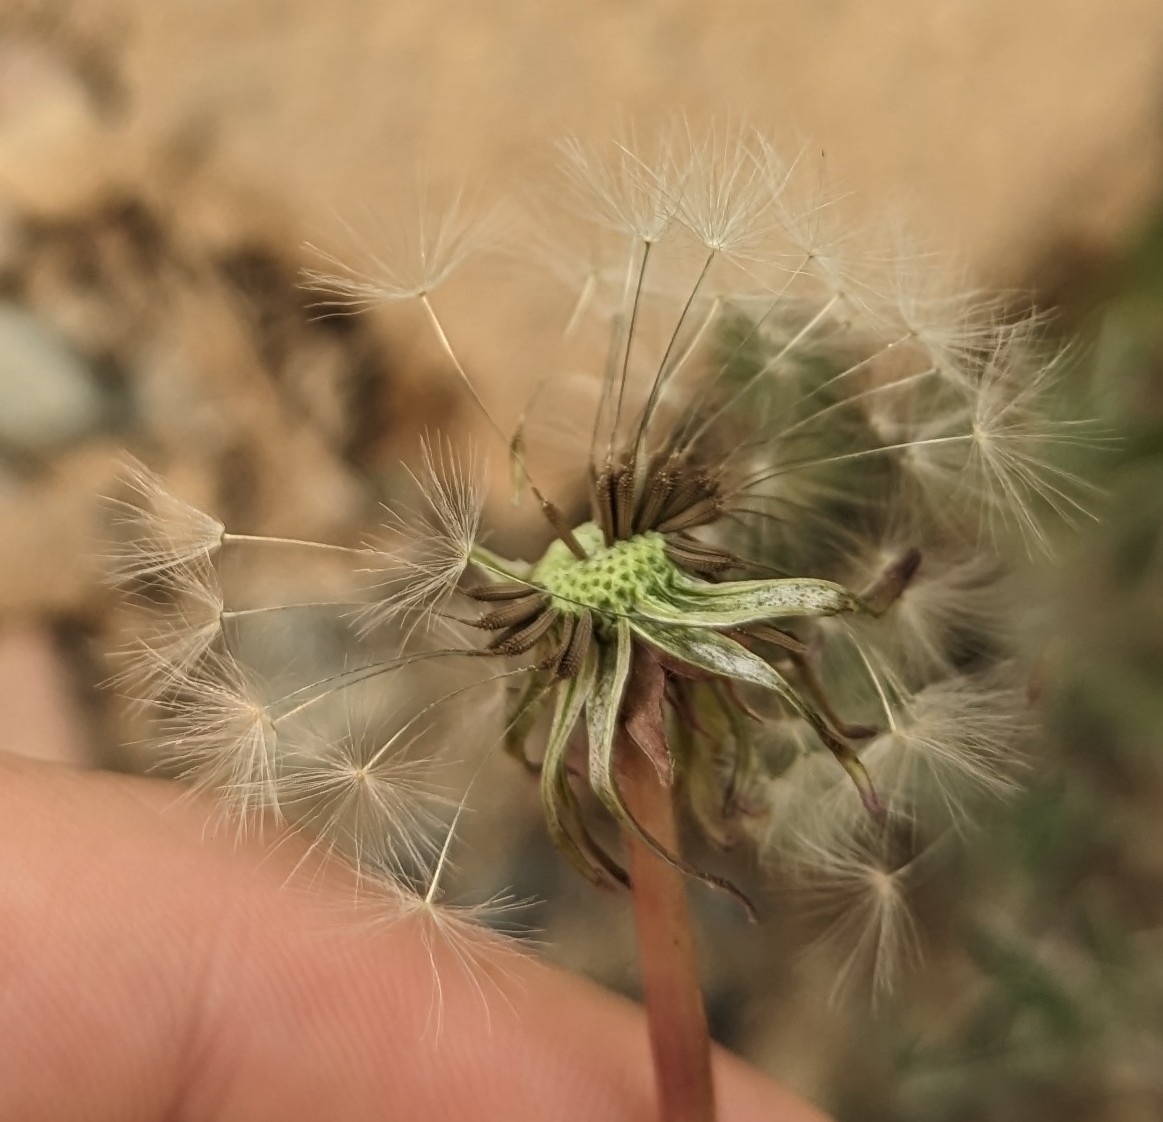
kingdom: Plantae
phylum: Tracheophyta
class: Magnoliopsida
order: Asterales
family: Asteraceae
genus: Taraxacum
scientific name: Taraxacum officinale
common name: Common dandelion
